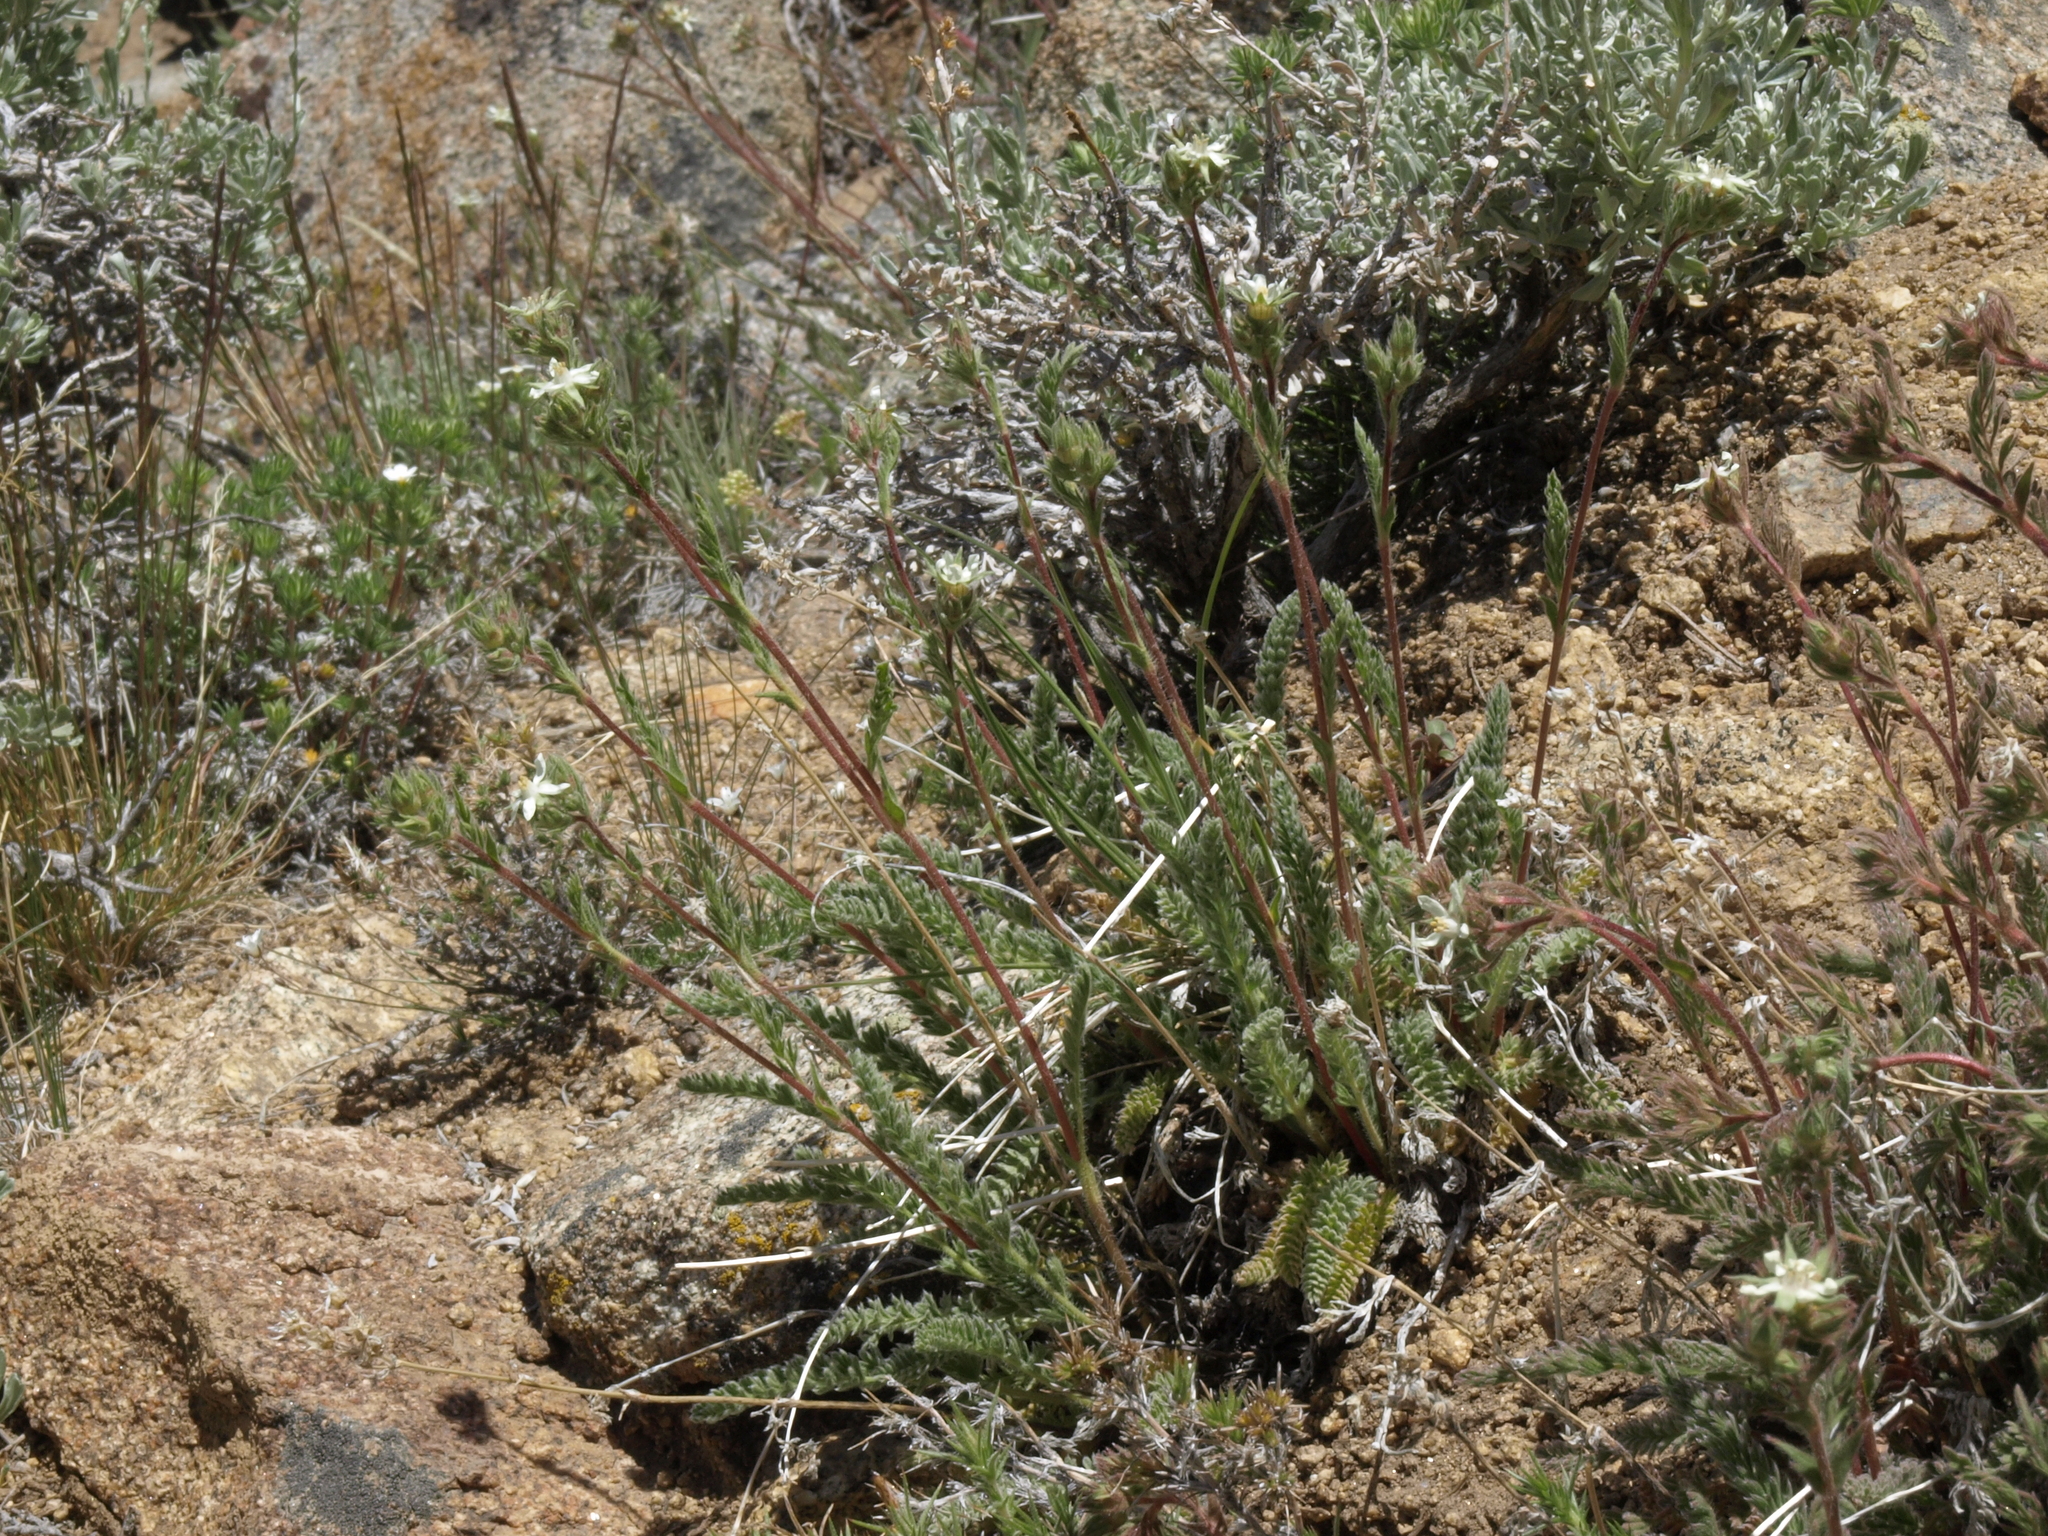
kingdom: Plantae
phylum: Tracheophyta
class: Magnoliopsida
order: Rosales
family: Rosaceae
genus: Potentilla
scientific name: Potentilla hispidula
